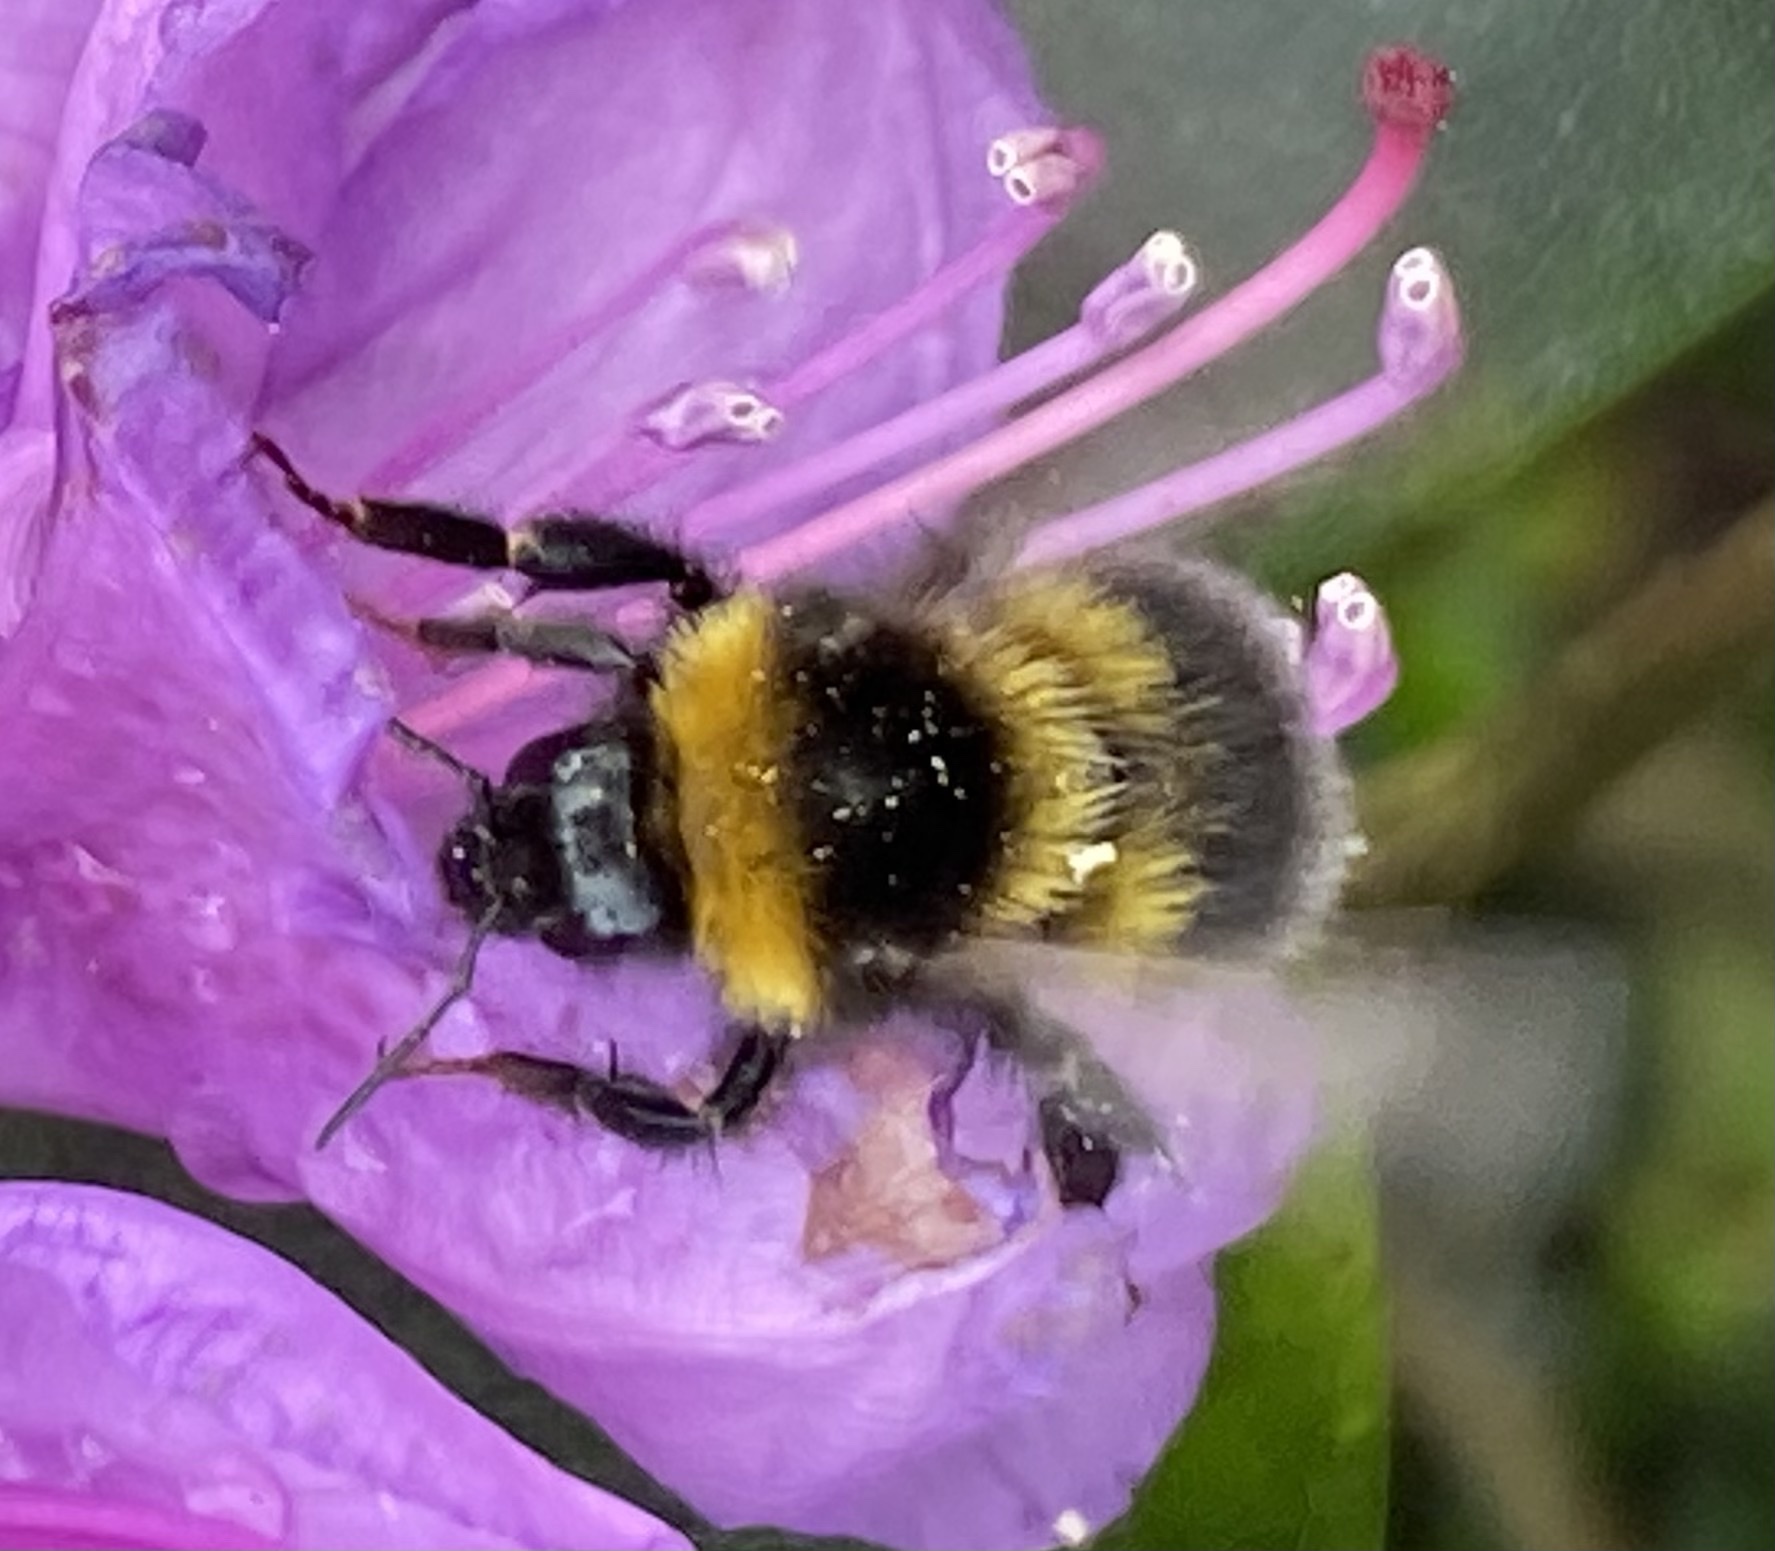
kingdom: Animalia
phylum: Arthropoda
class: Insecta
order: Hymenoptera
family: Apidae
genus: Bombus
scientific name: Bombus hortorum
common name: Garden bumblebee
